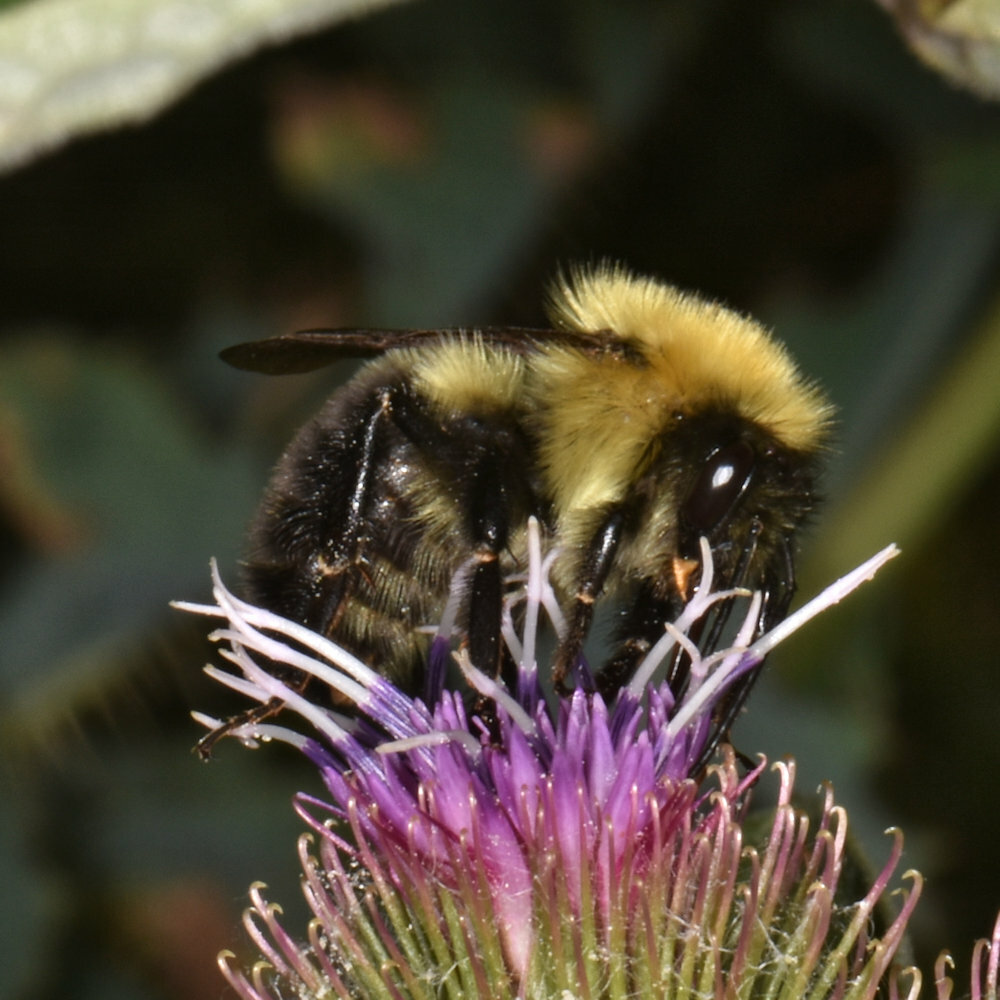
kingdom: Animalia
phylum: Arthropoda
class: Insecta
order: Hymenoptera
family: Apidae
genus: Bombus
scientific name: Bombus bimaculatus
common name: Two-spotted bumble bee
